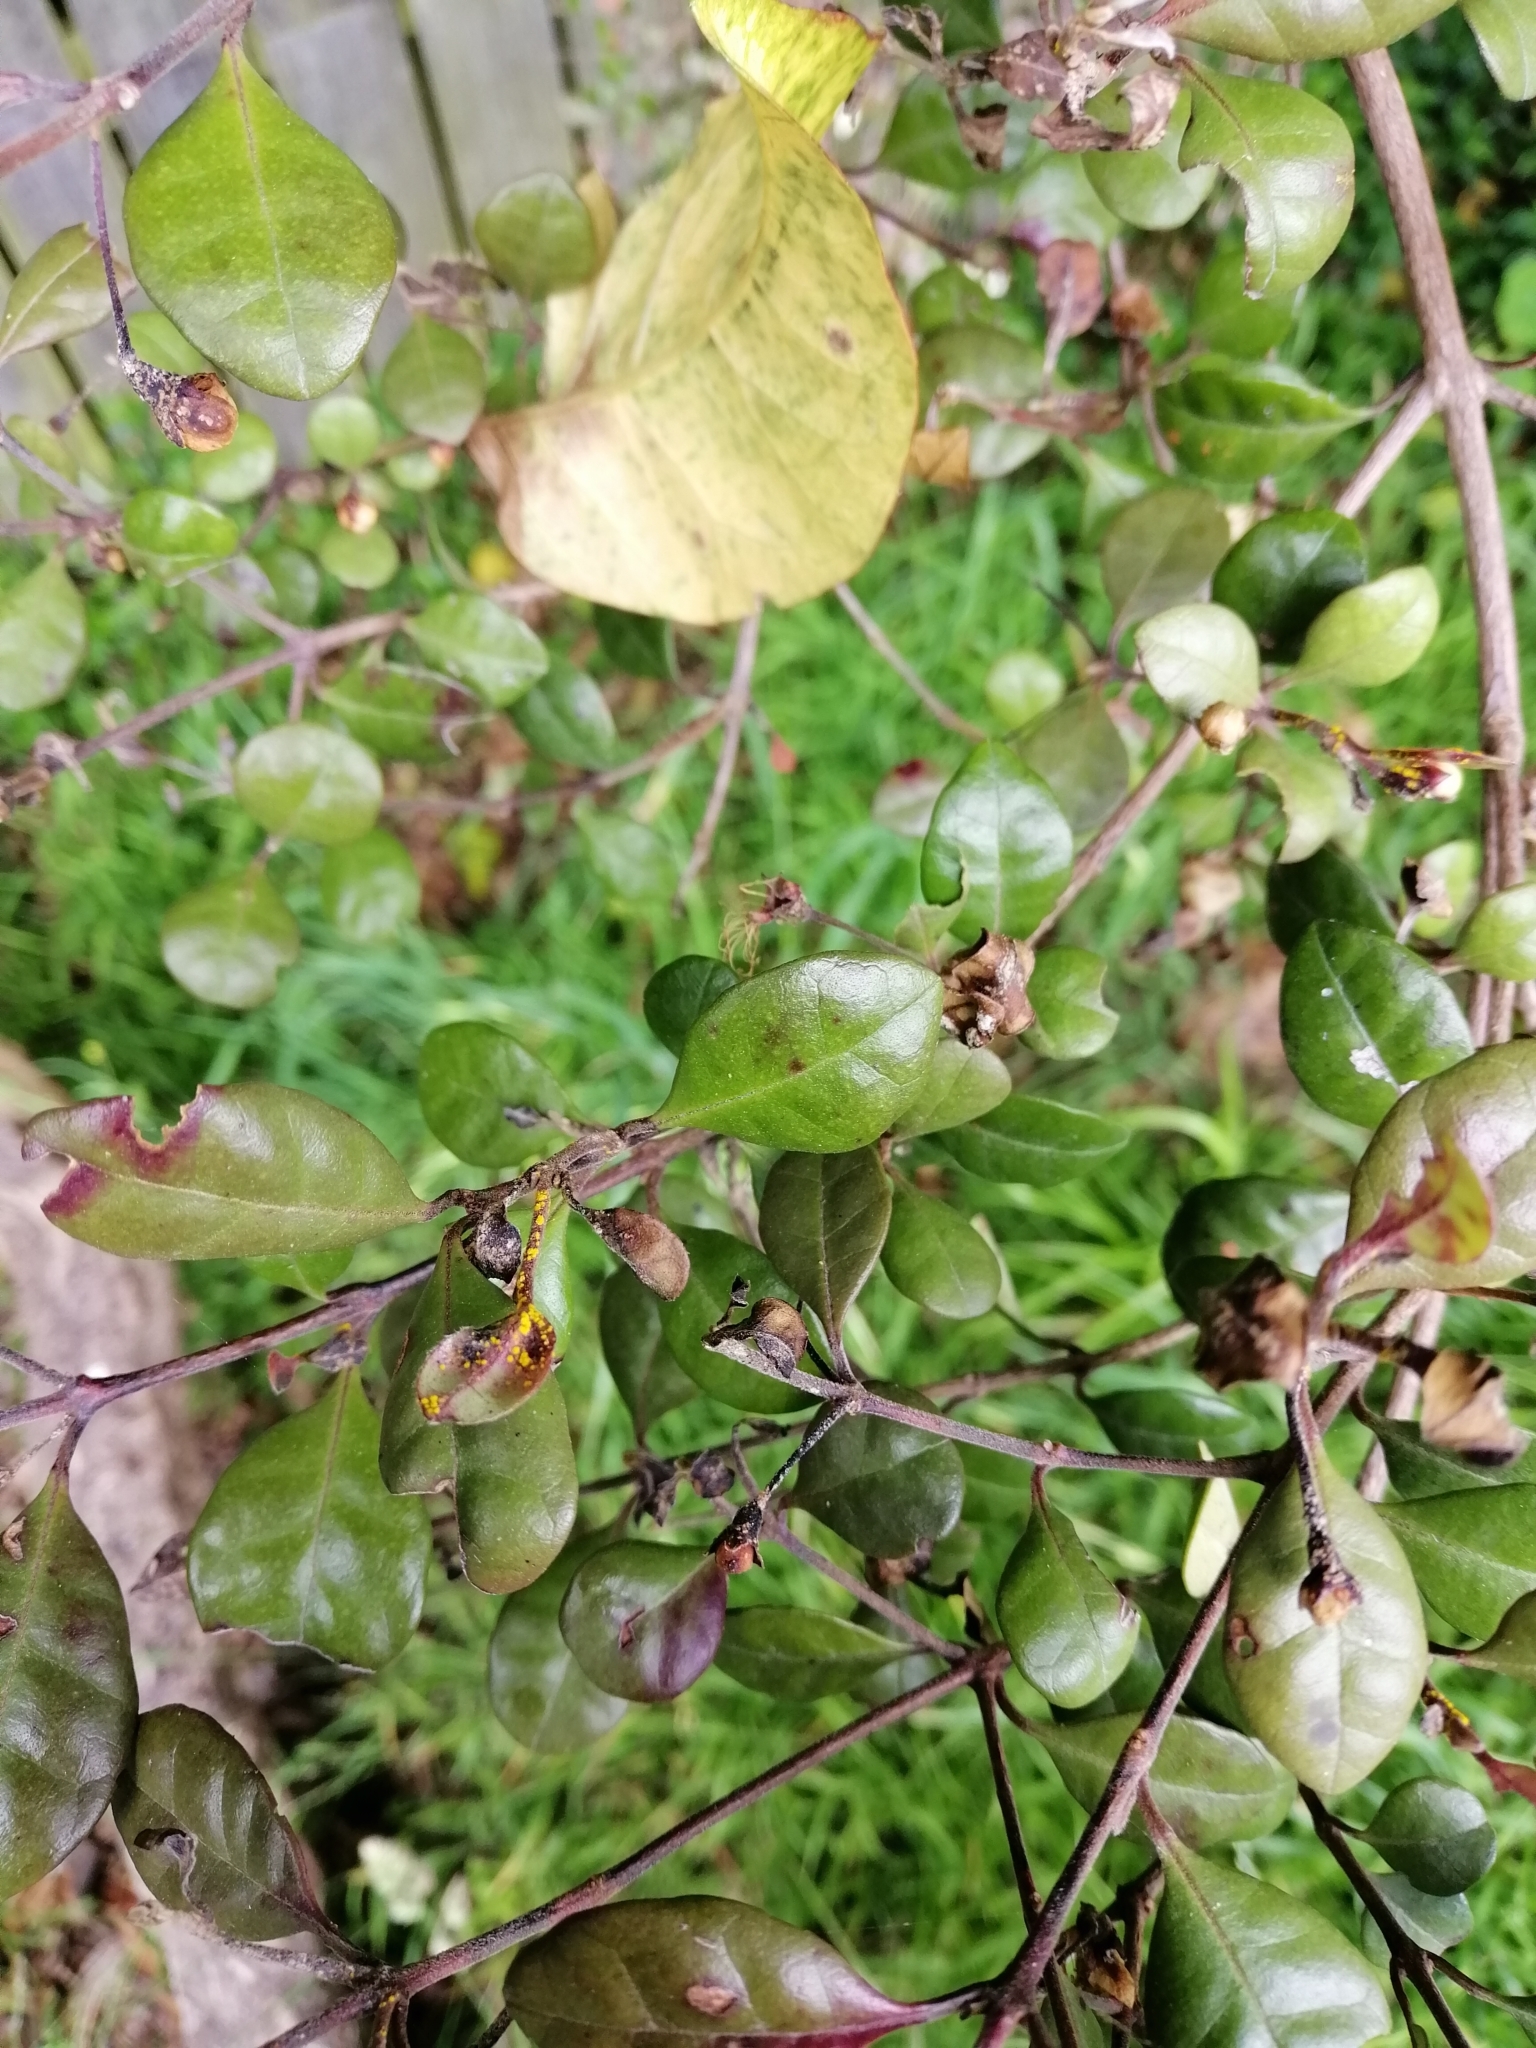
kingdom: Fungi
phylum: Basidiomycota
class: Pucciniomycetes
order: Pucciniales
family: Sphaerophragmiaceae
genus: Austropuccinia
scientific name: Austropuccinia psidii
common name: Myrtle rust
